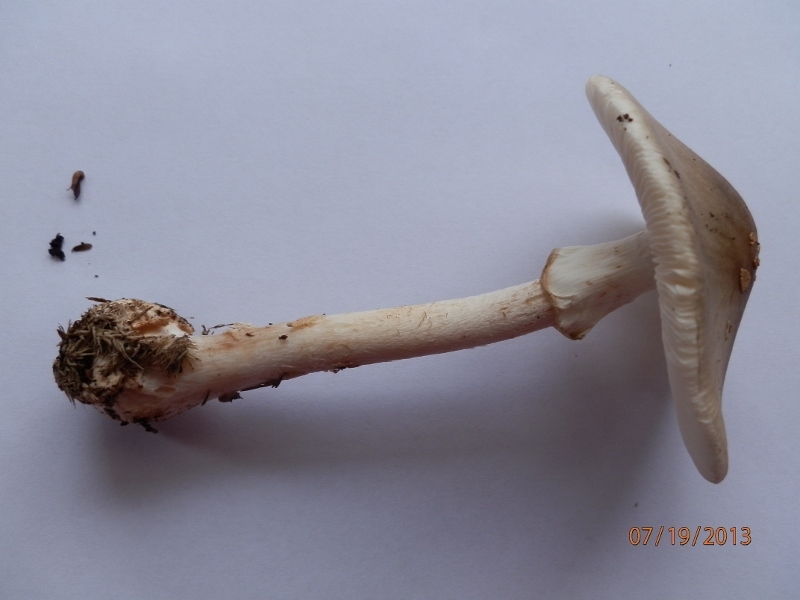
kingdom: Fungi
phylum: Basidiomycota
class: Agaricomycetes
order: Agaricales
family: Amanitaceae
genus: Amanita
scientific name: Amanita brunnescens
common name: Brown american star-footed amanita
